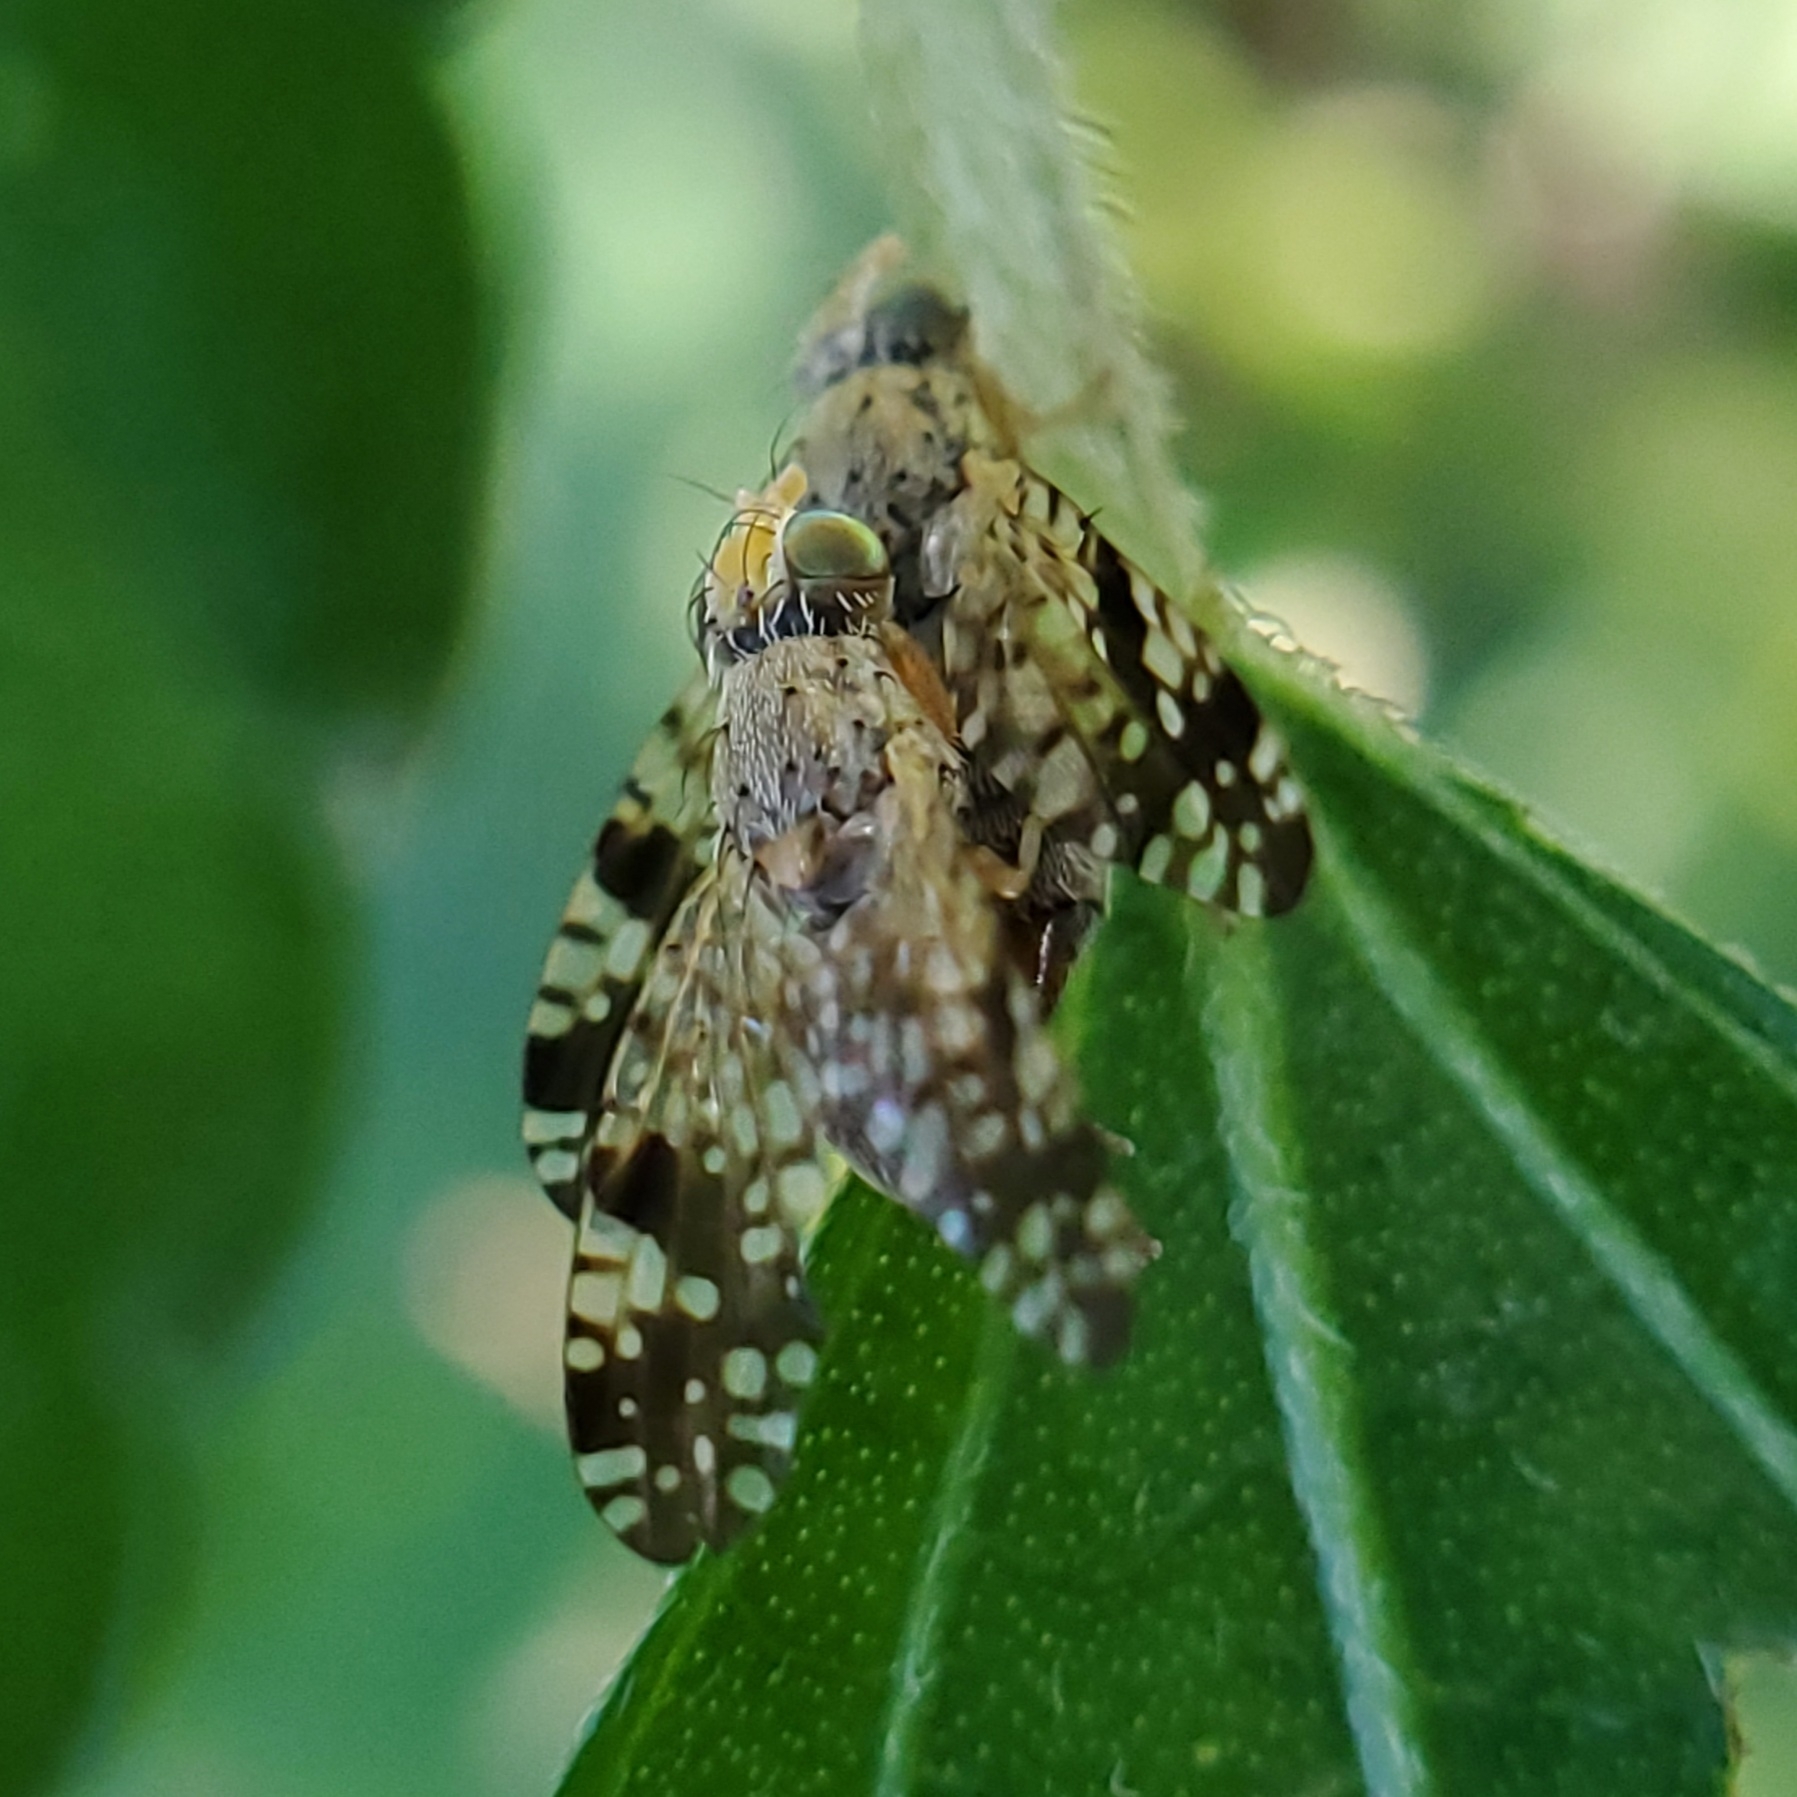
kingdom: Animalia
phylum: Arthropoda
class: Insecta
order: Diptera
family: Tephritidae
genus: Neotephritis
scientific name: Neotephritis finalis
